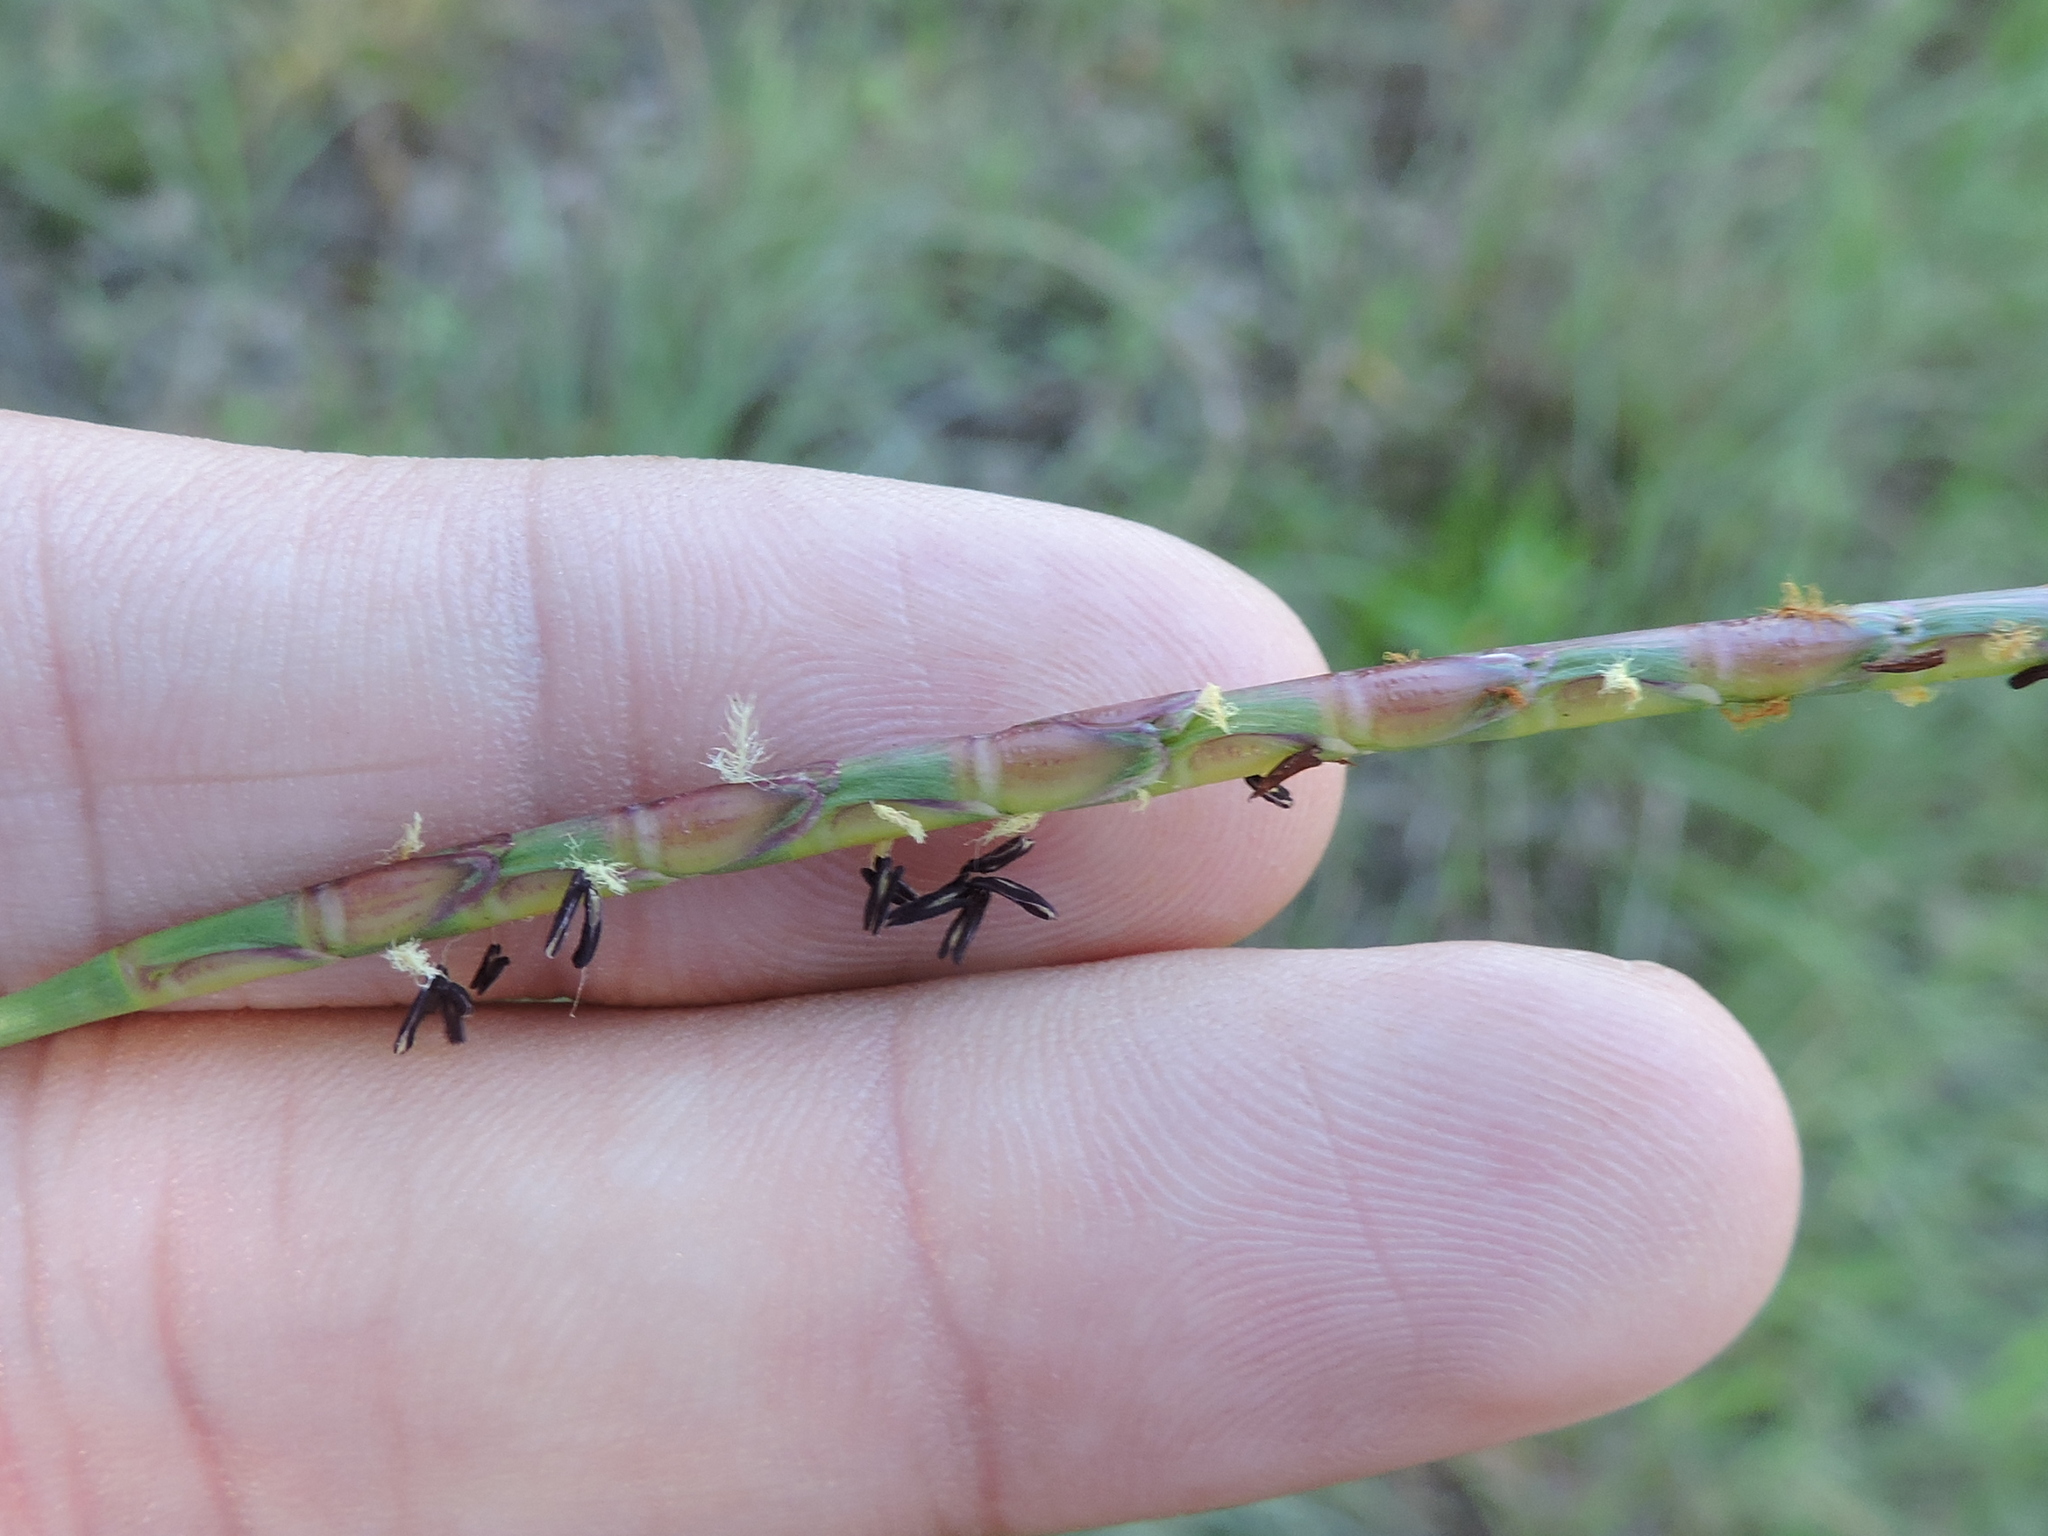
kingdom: Plantae
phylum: Tracheophyta
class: Liliopsida
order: Poales
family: Poaceae
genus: Rottboellia
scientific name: Rottboellia campestris
